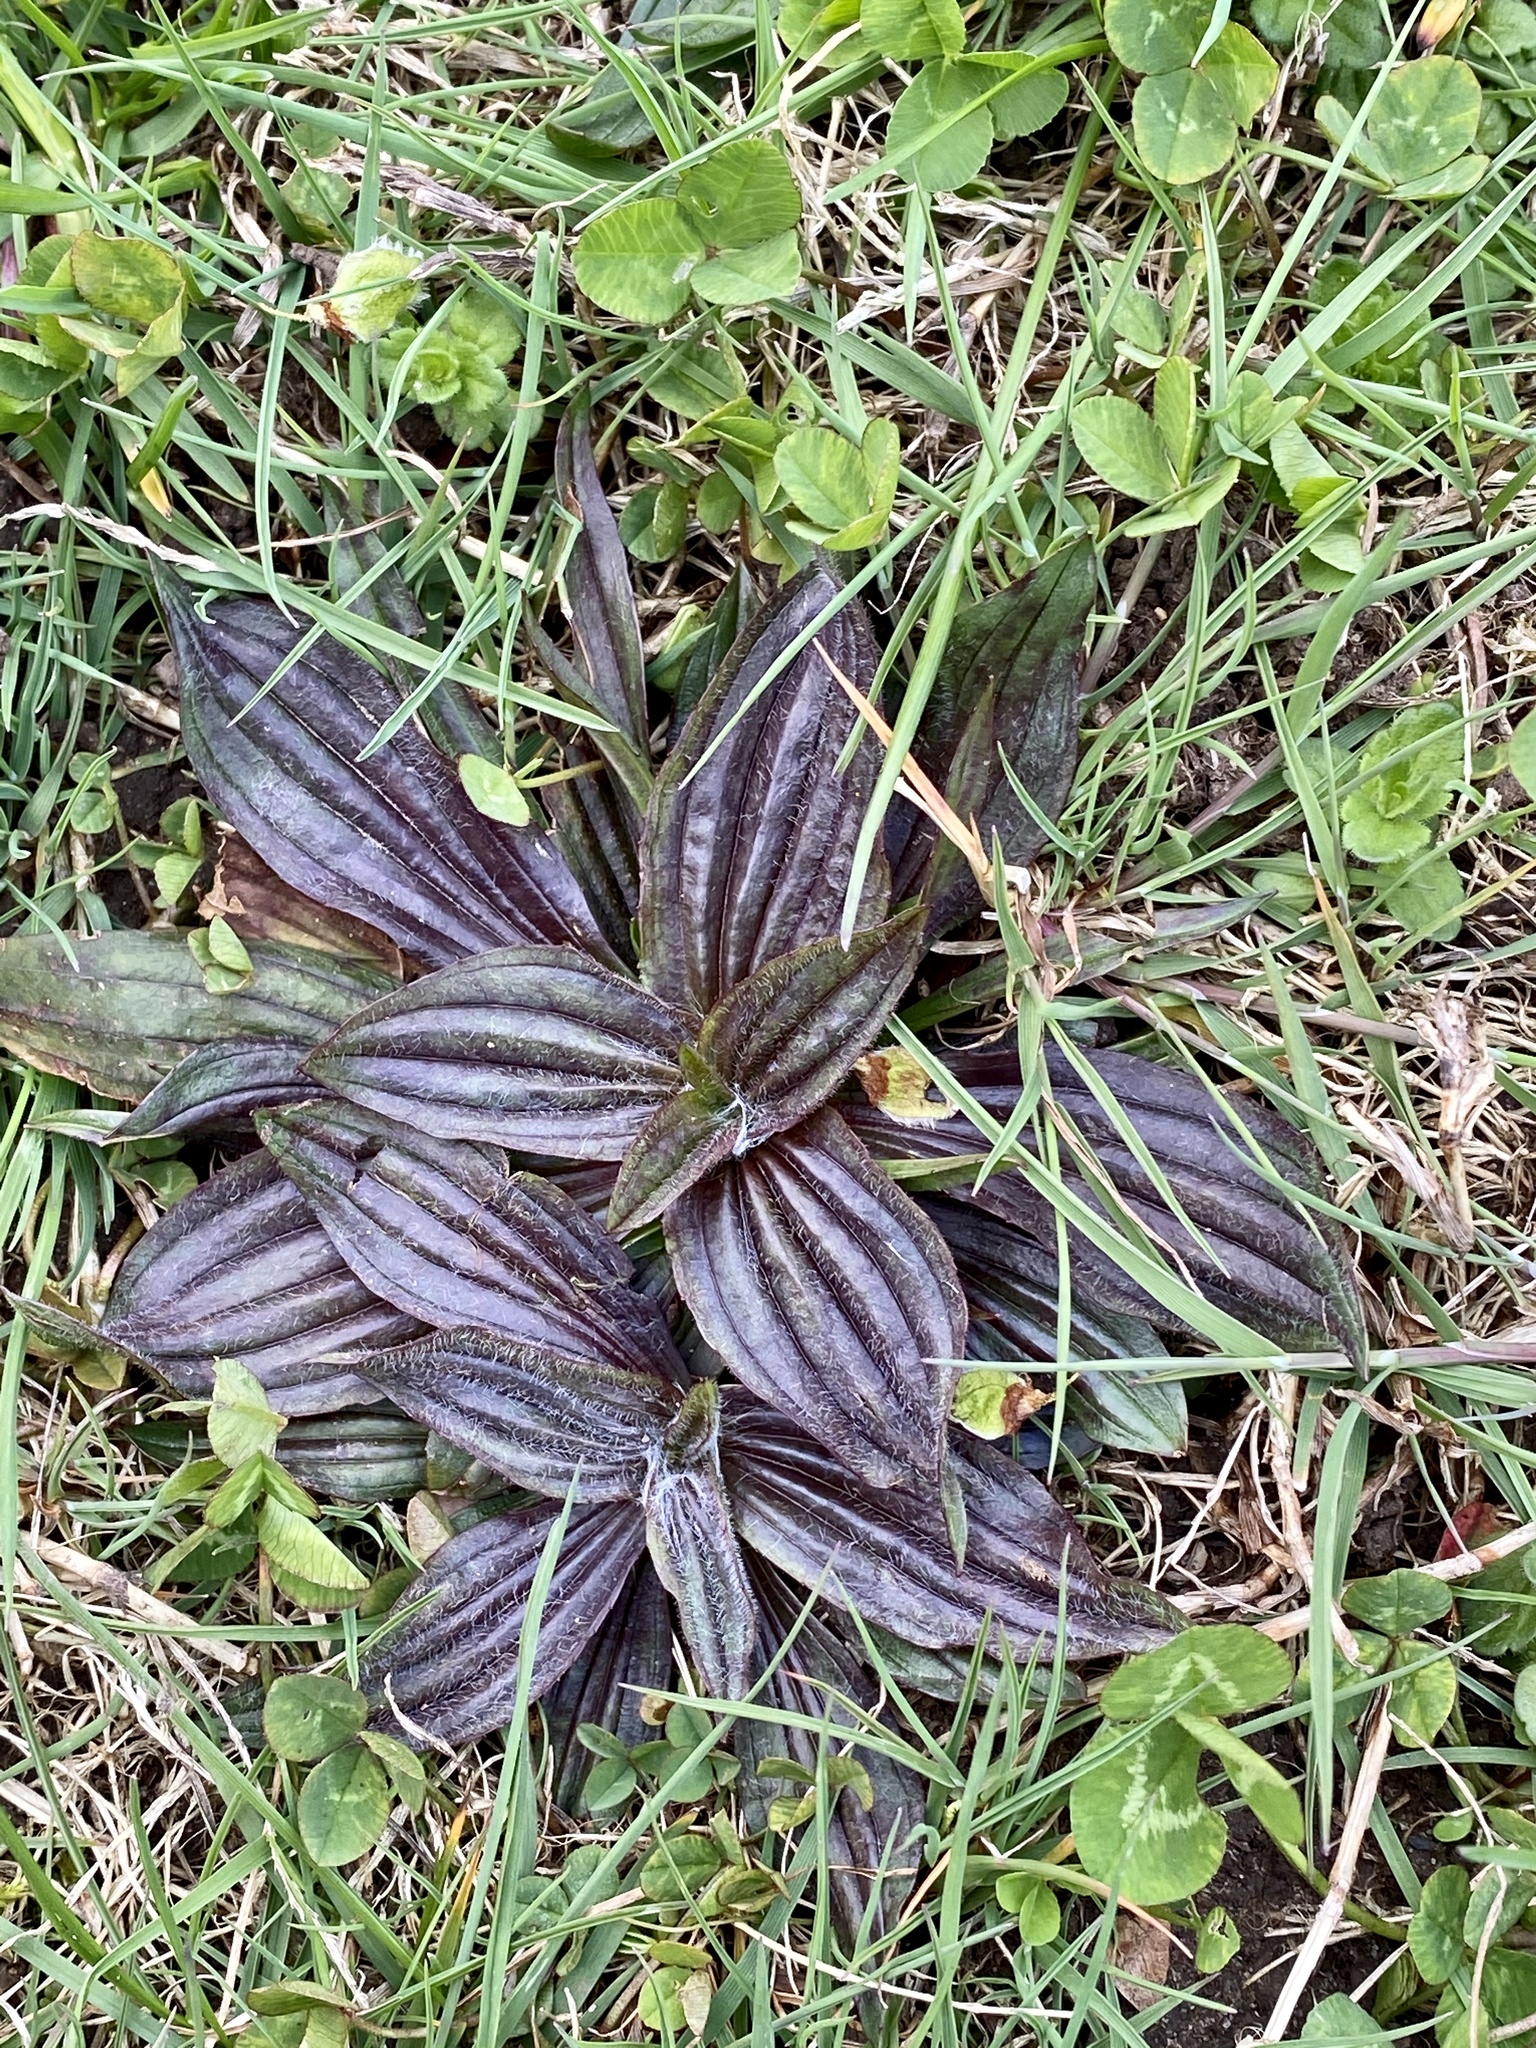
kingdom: Plantae
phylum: Tracheophyta
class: Magnoliopsida
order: Lamiales
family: Plantaginaceae
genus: Plantago
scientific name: Plantago lanceolata
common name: Ribwort plantain
